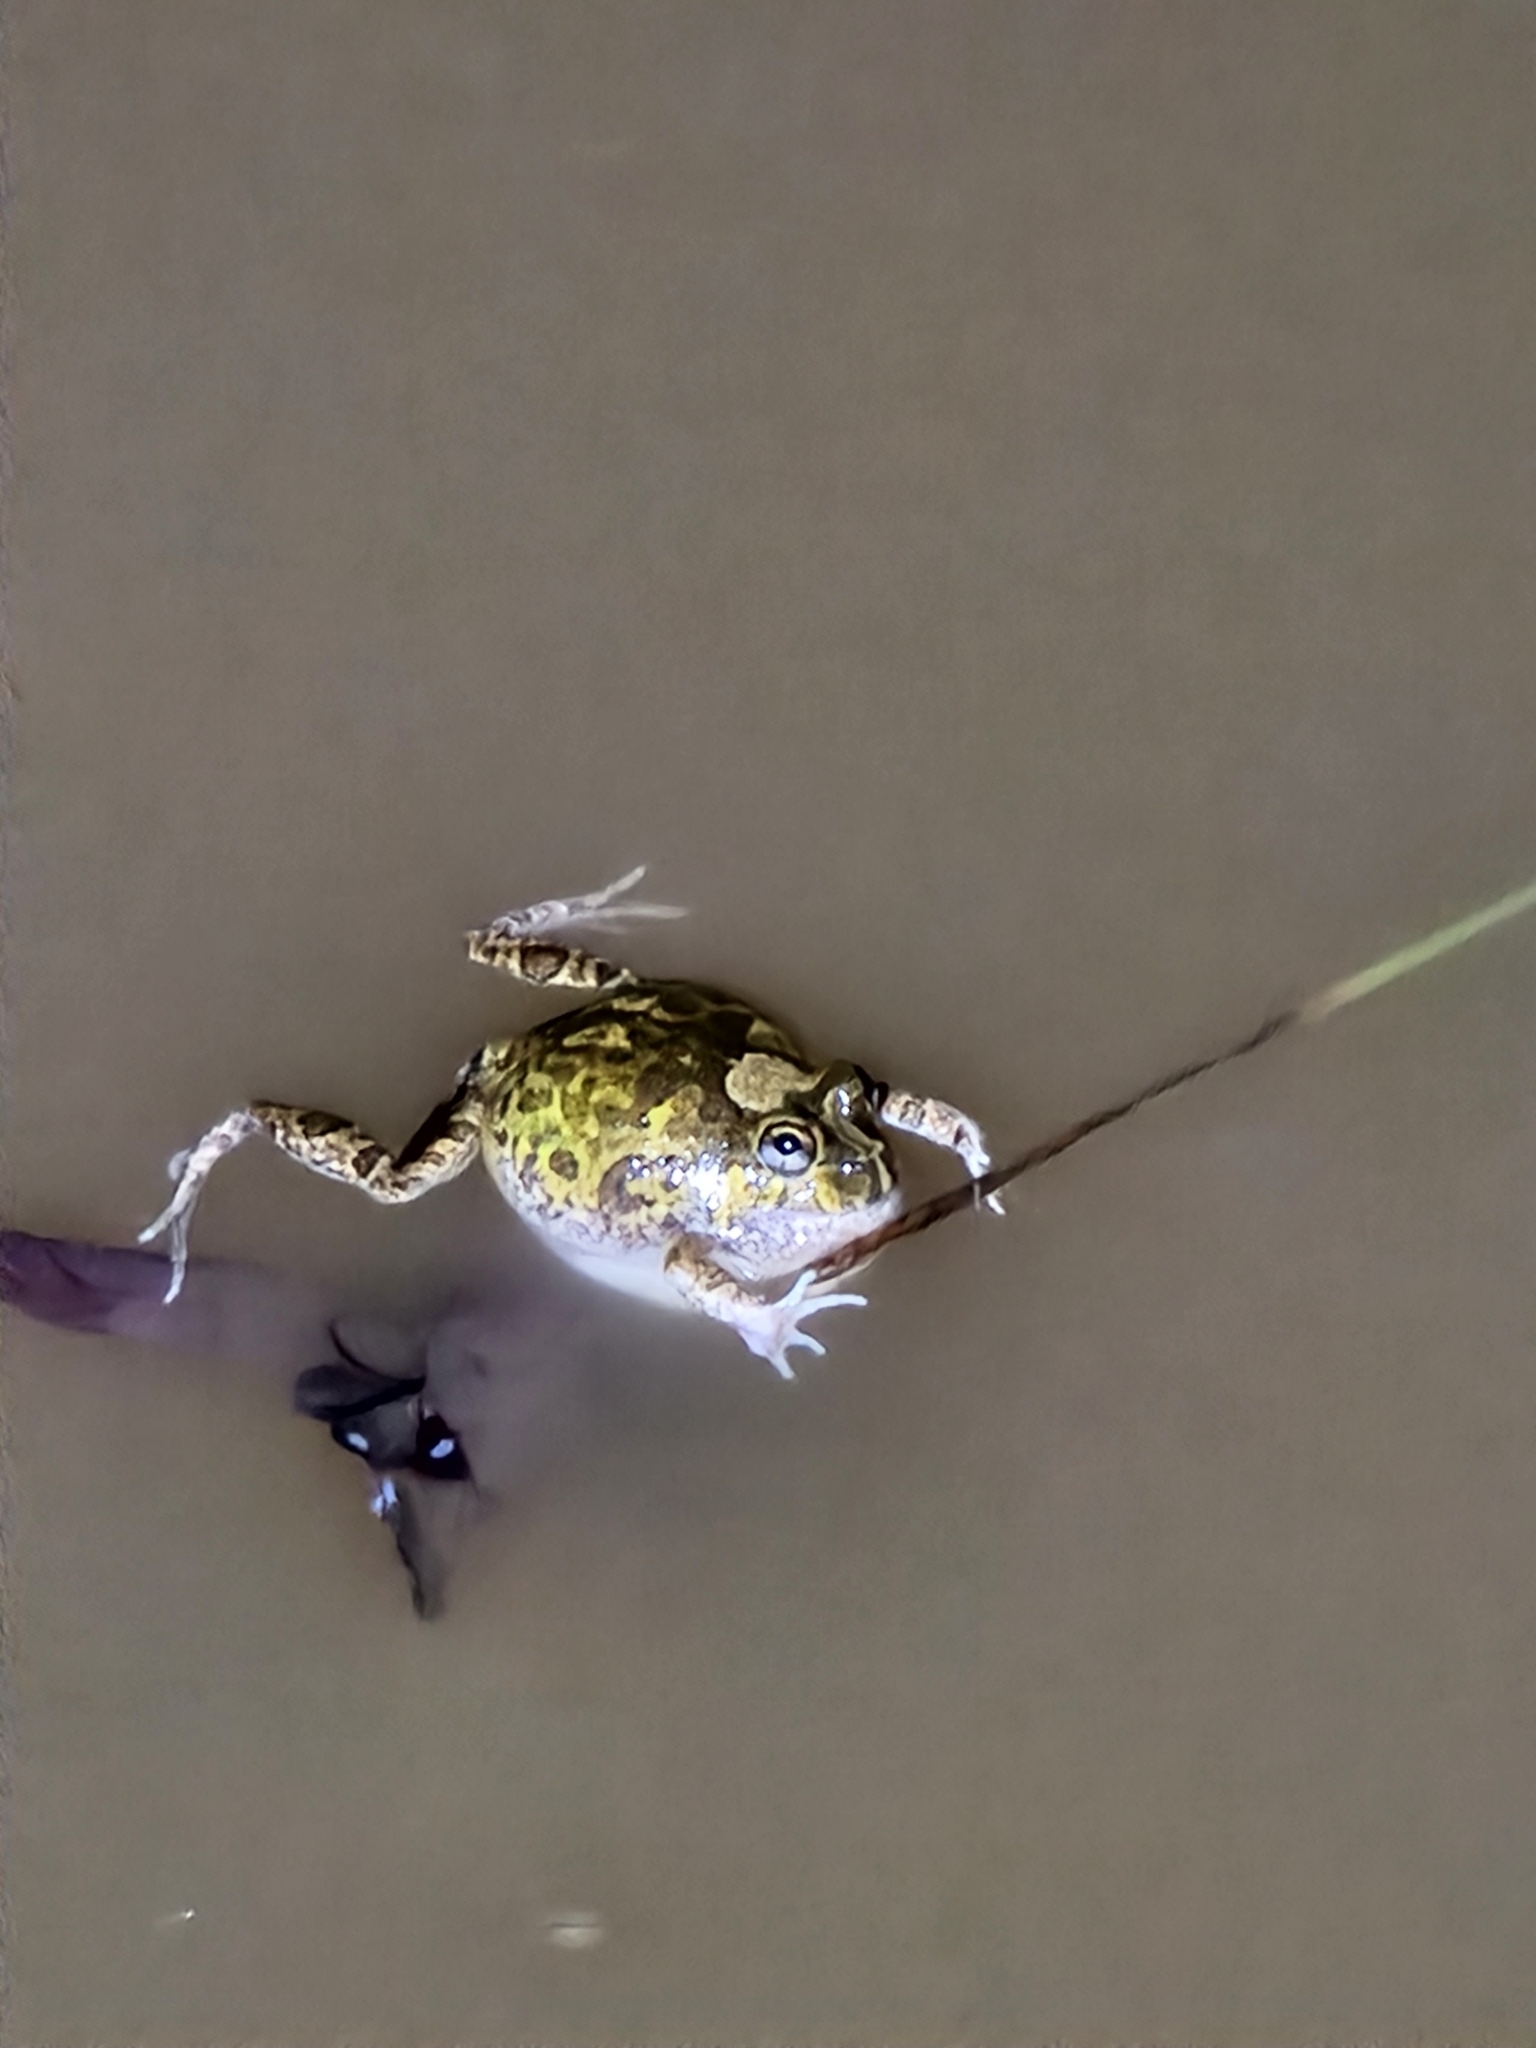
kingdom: Animalia
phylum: Chordata
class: Amphibia
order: Anura
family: Limnodynastidae
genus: Platyplectrum
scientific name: Platyplectrum ornatum
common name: Ornate burrowing frog
